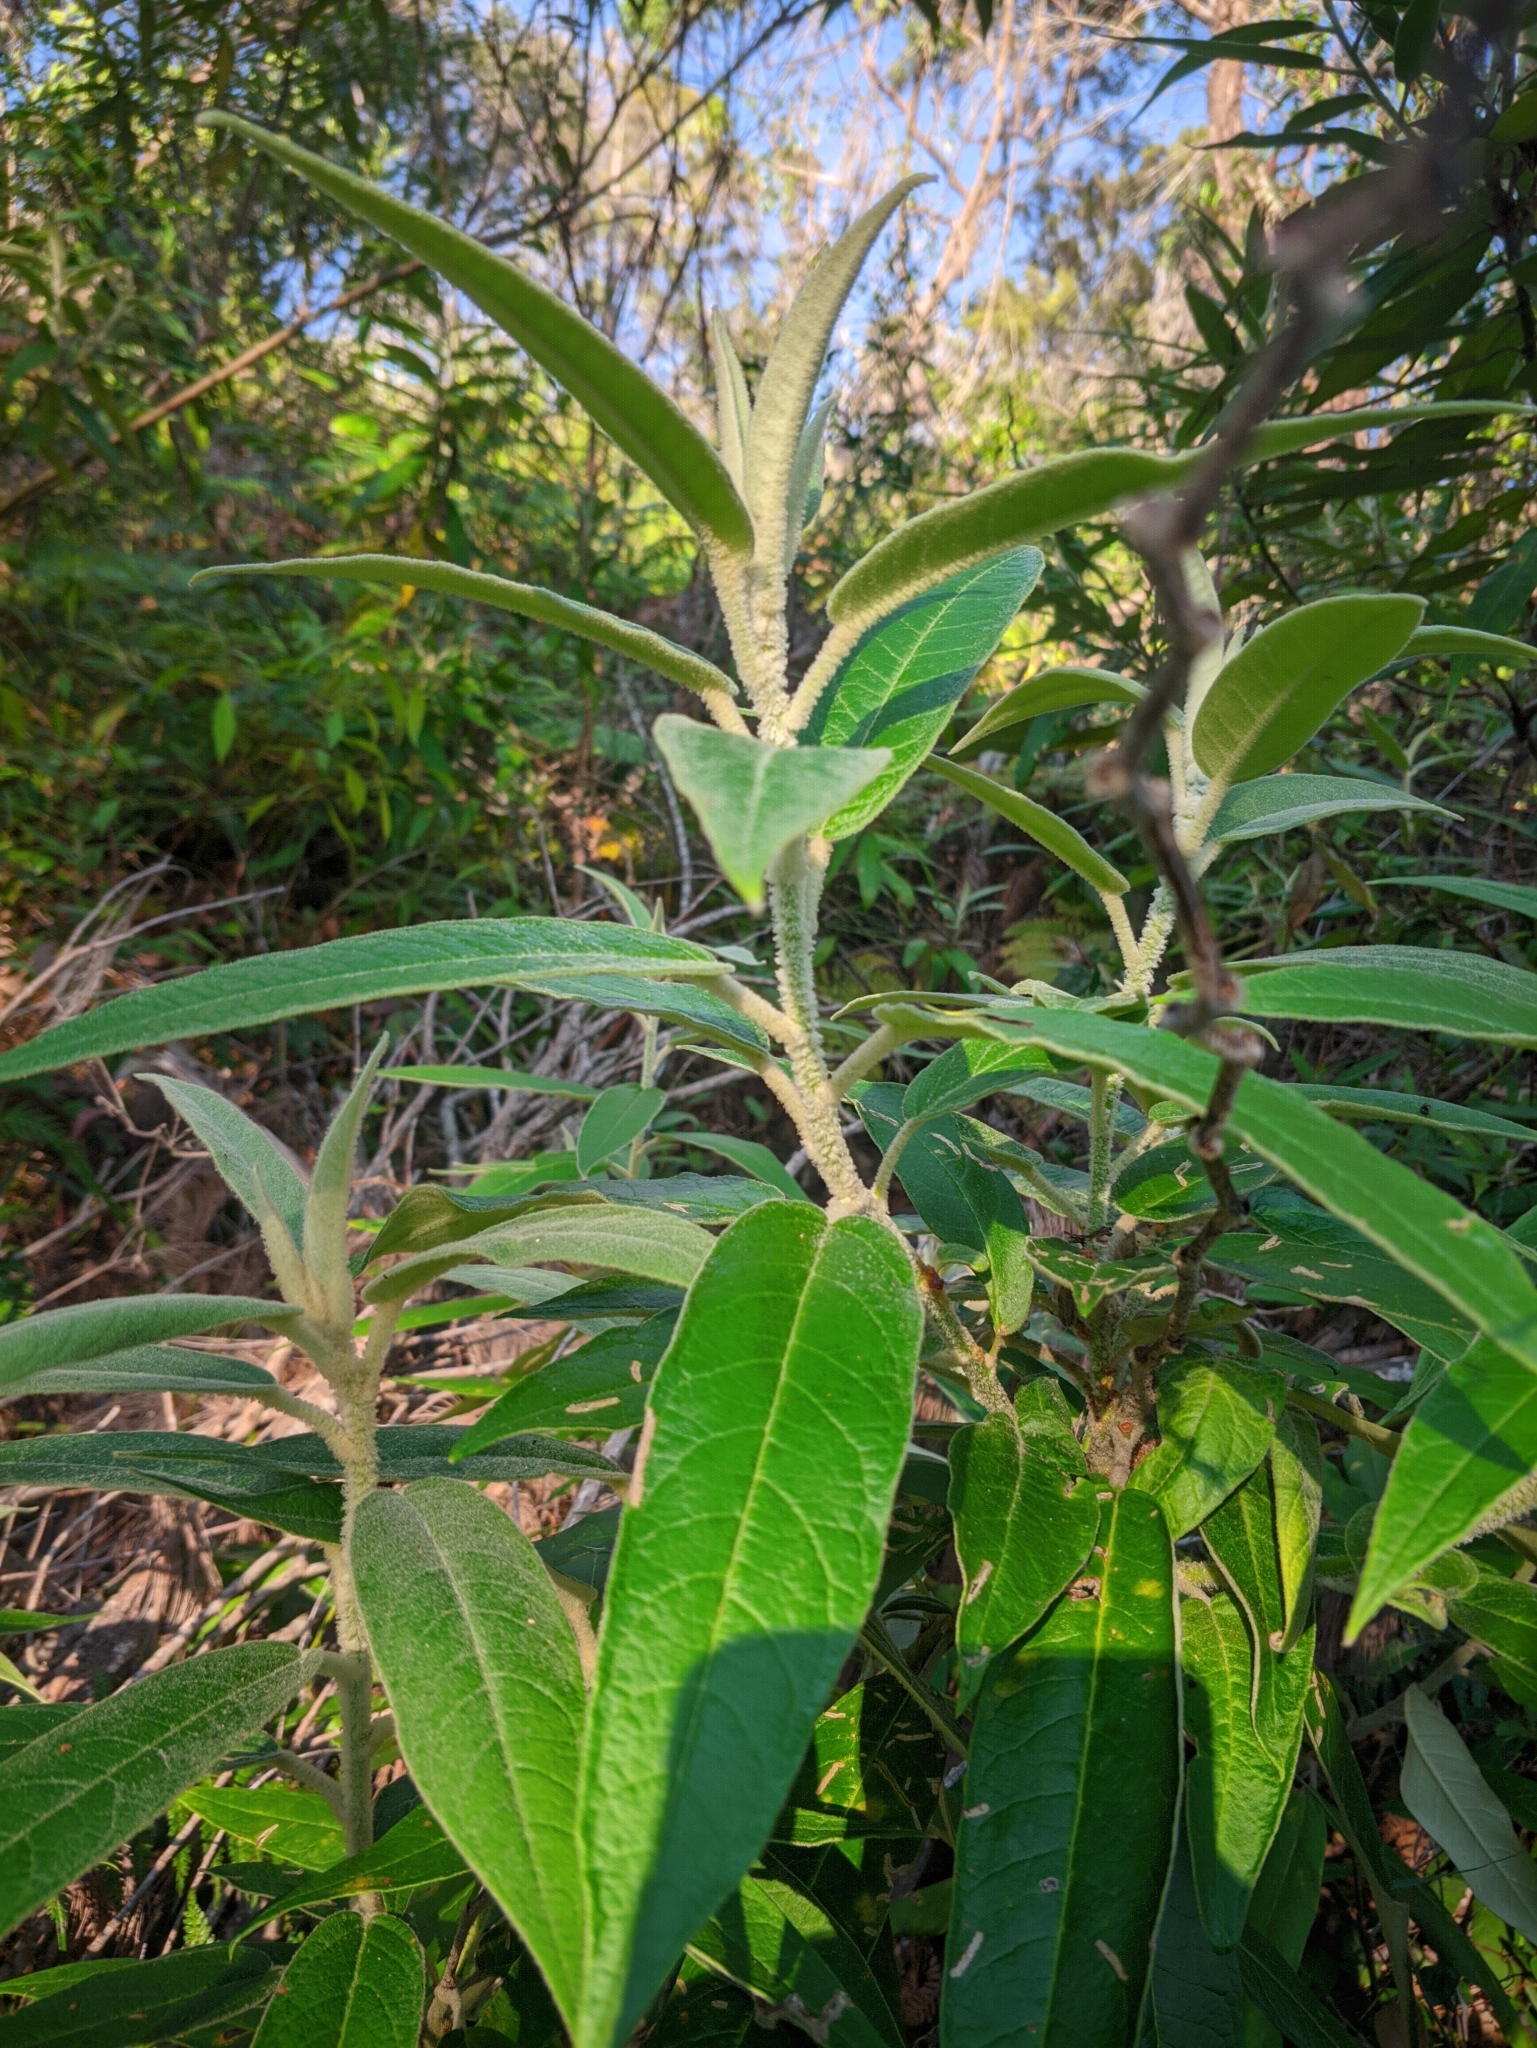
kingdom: Plantae
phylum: Tracheophyta
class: Magnoliopsida
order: Apiales
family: Araliaceae
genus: Astrotricha
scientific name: Astrotricha floccosa
